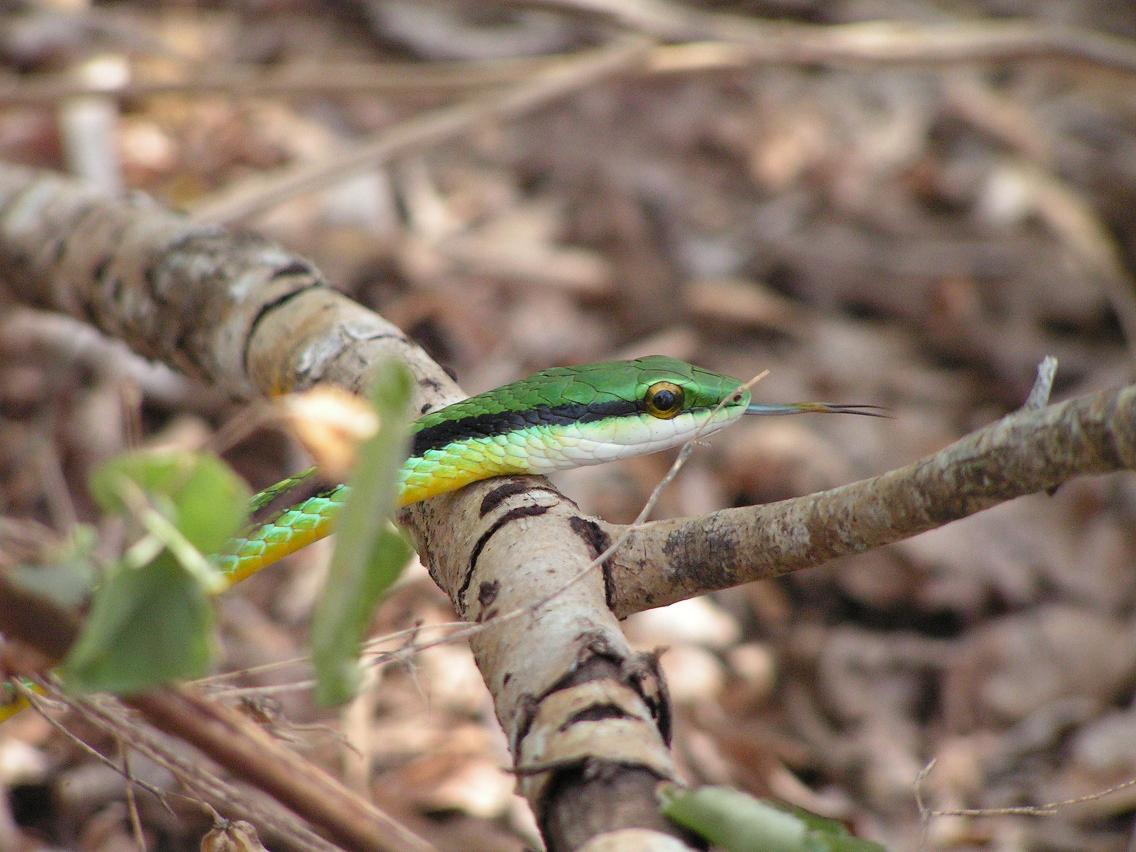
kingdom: Animalia
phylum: Chordata
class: Squamata
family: Colubridae
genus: Leptophis
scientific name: Leptophis diplotropis
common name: Pacific coast parrot snake
